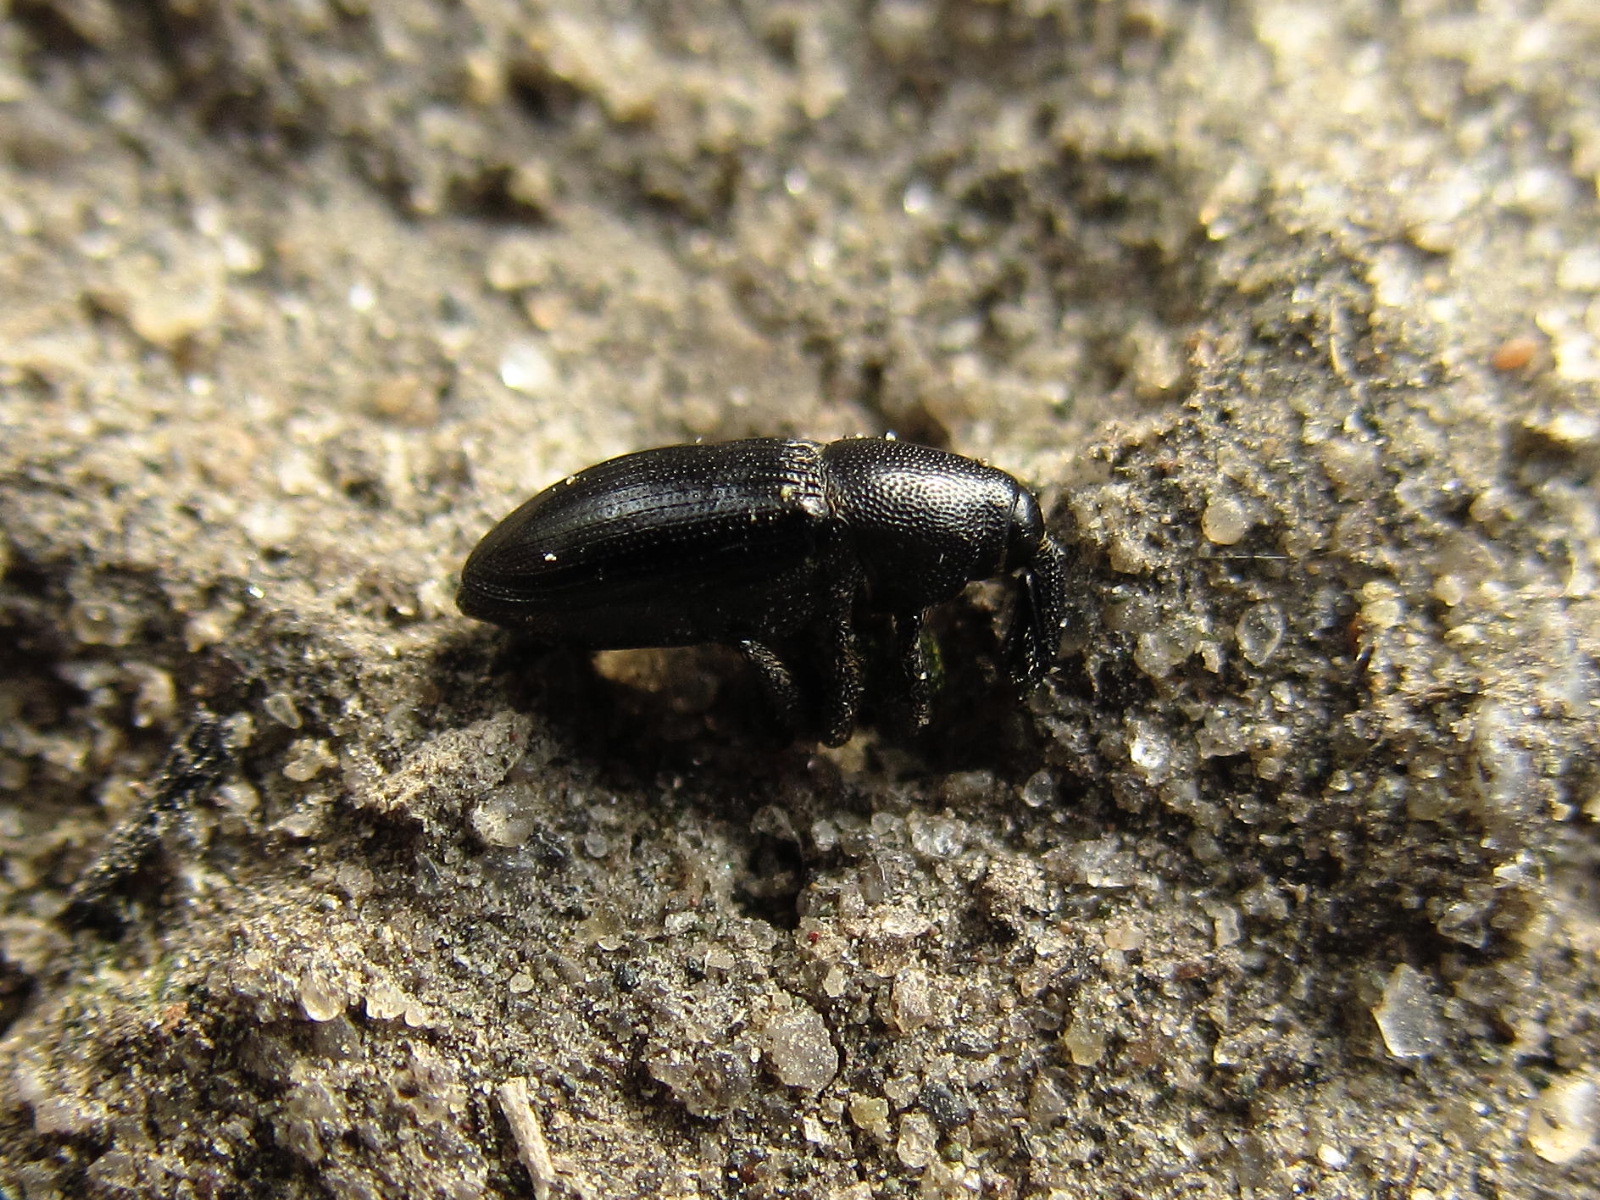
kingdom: Animalia
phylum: Arthropoda
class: Insecta
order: Coleoptera
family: Curculionidae
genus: Melanobaris
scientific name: Melanobaris semistriata
